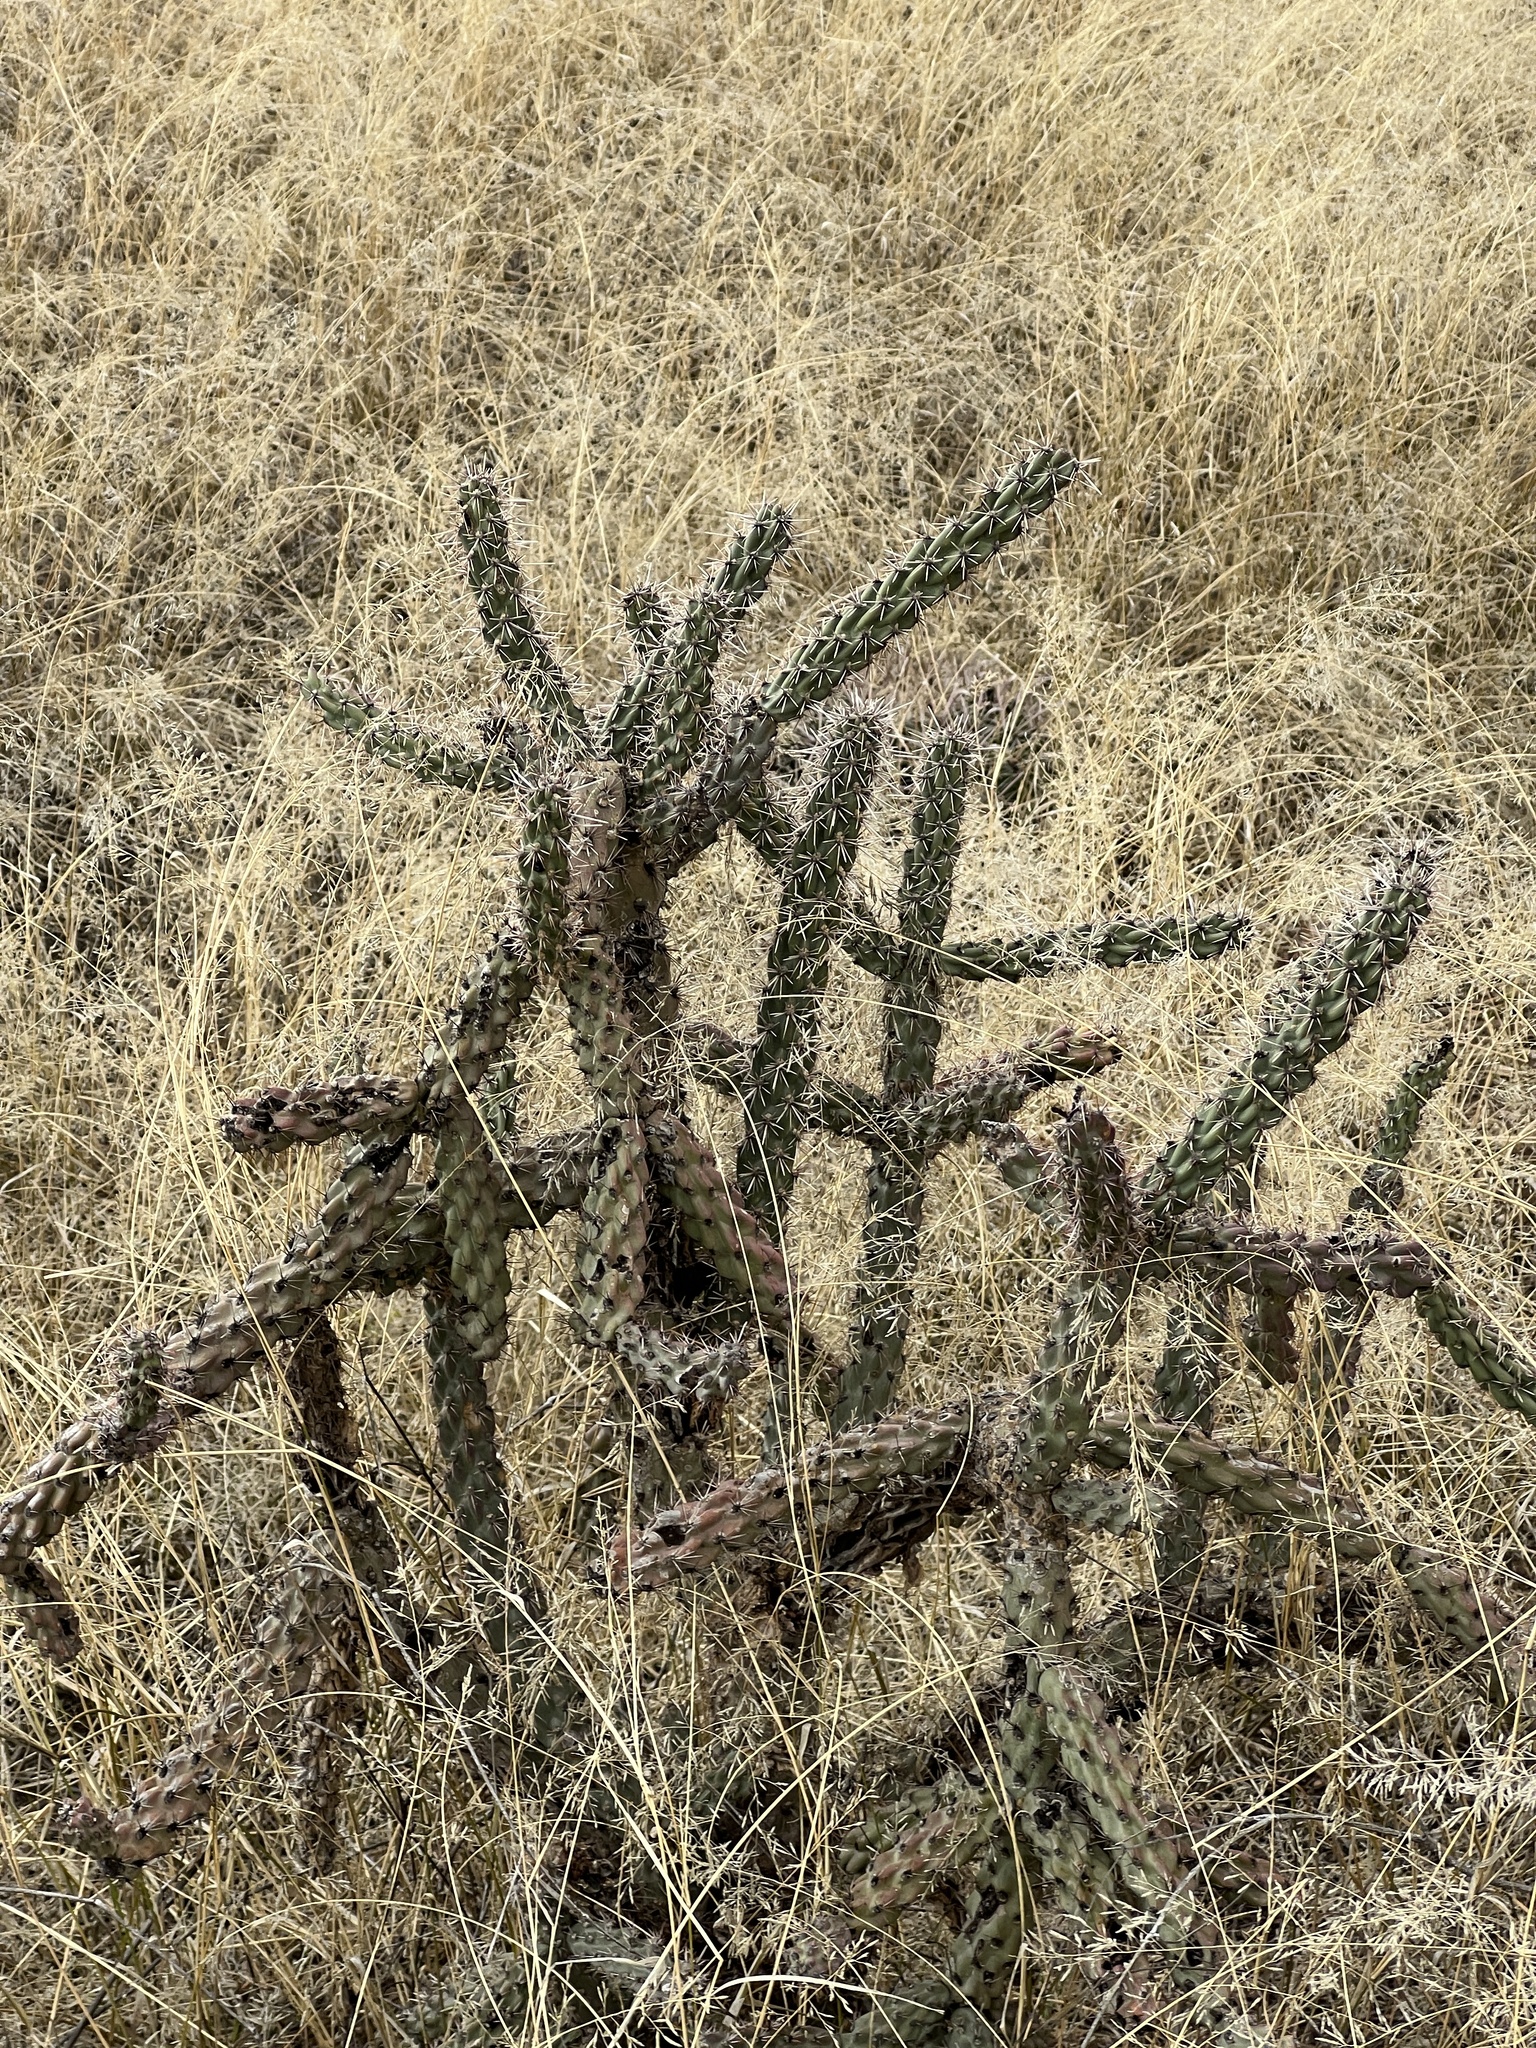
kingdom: Plantae
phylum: Tracheophyta
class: Magnoliopsida
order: Caryophyllales
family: Cactaceae
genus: Cylindropuntia
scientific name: Cylindropuntia imbricata
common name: Candelabrum cactus
